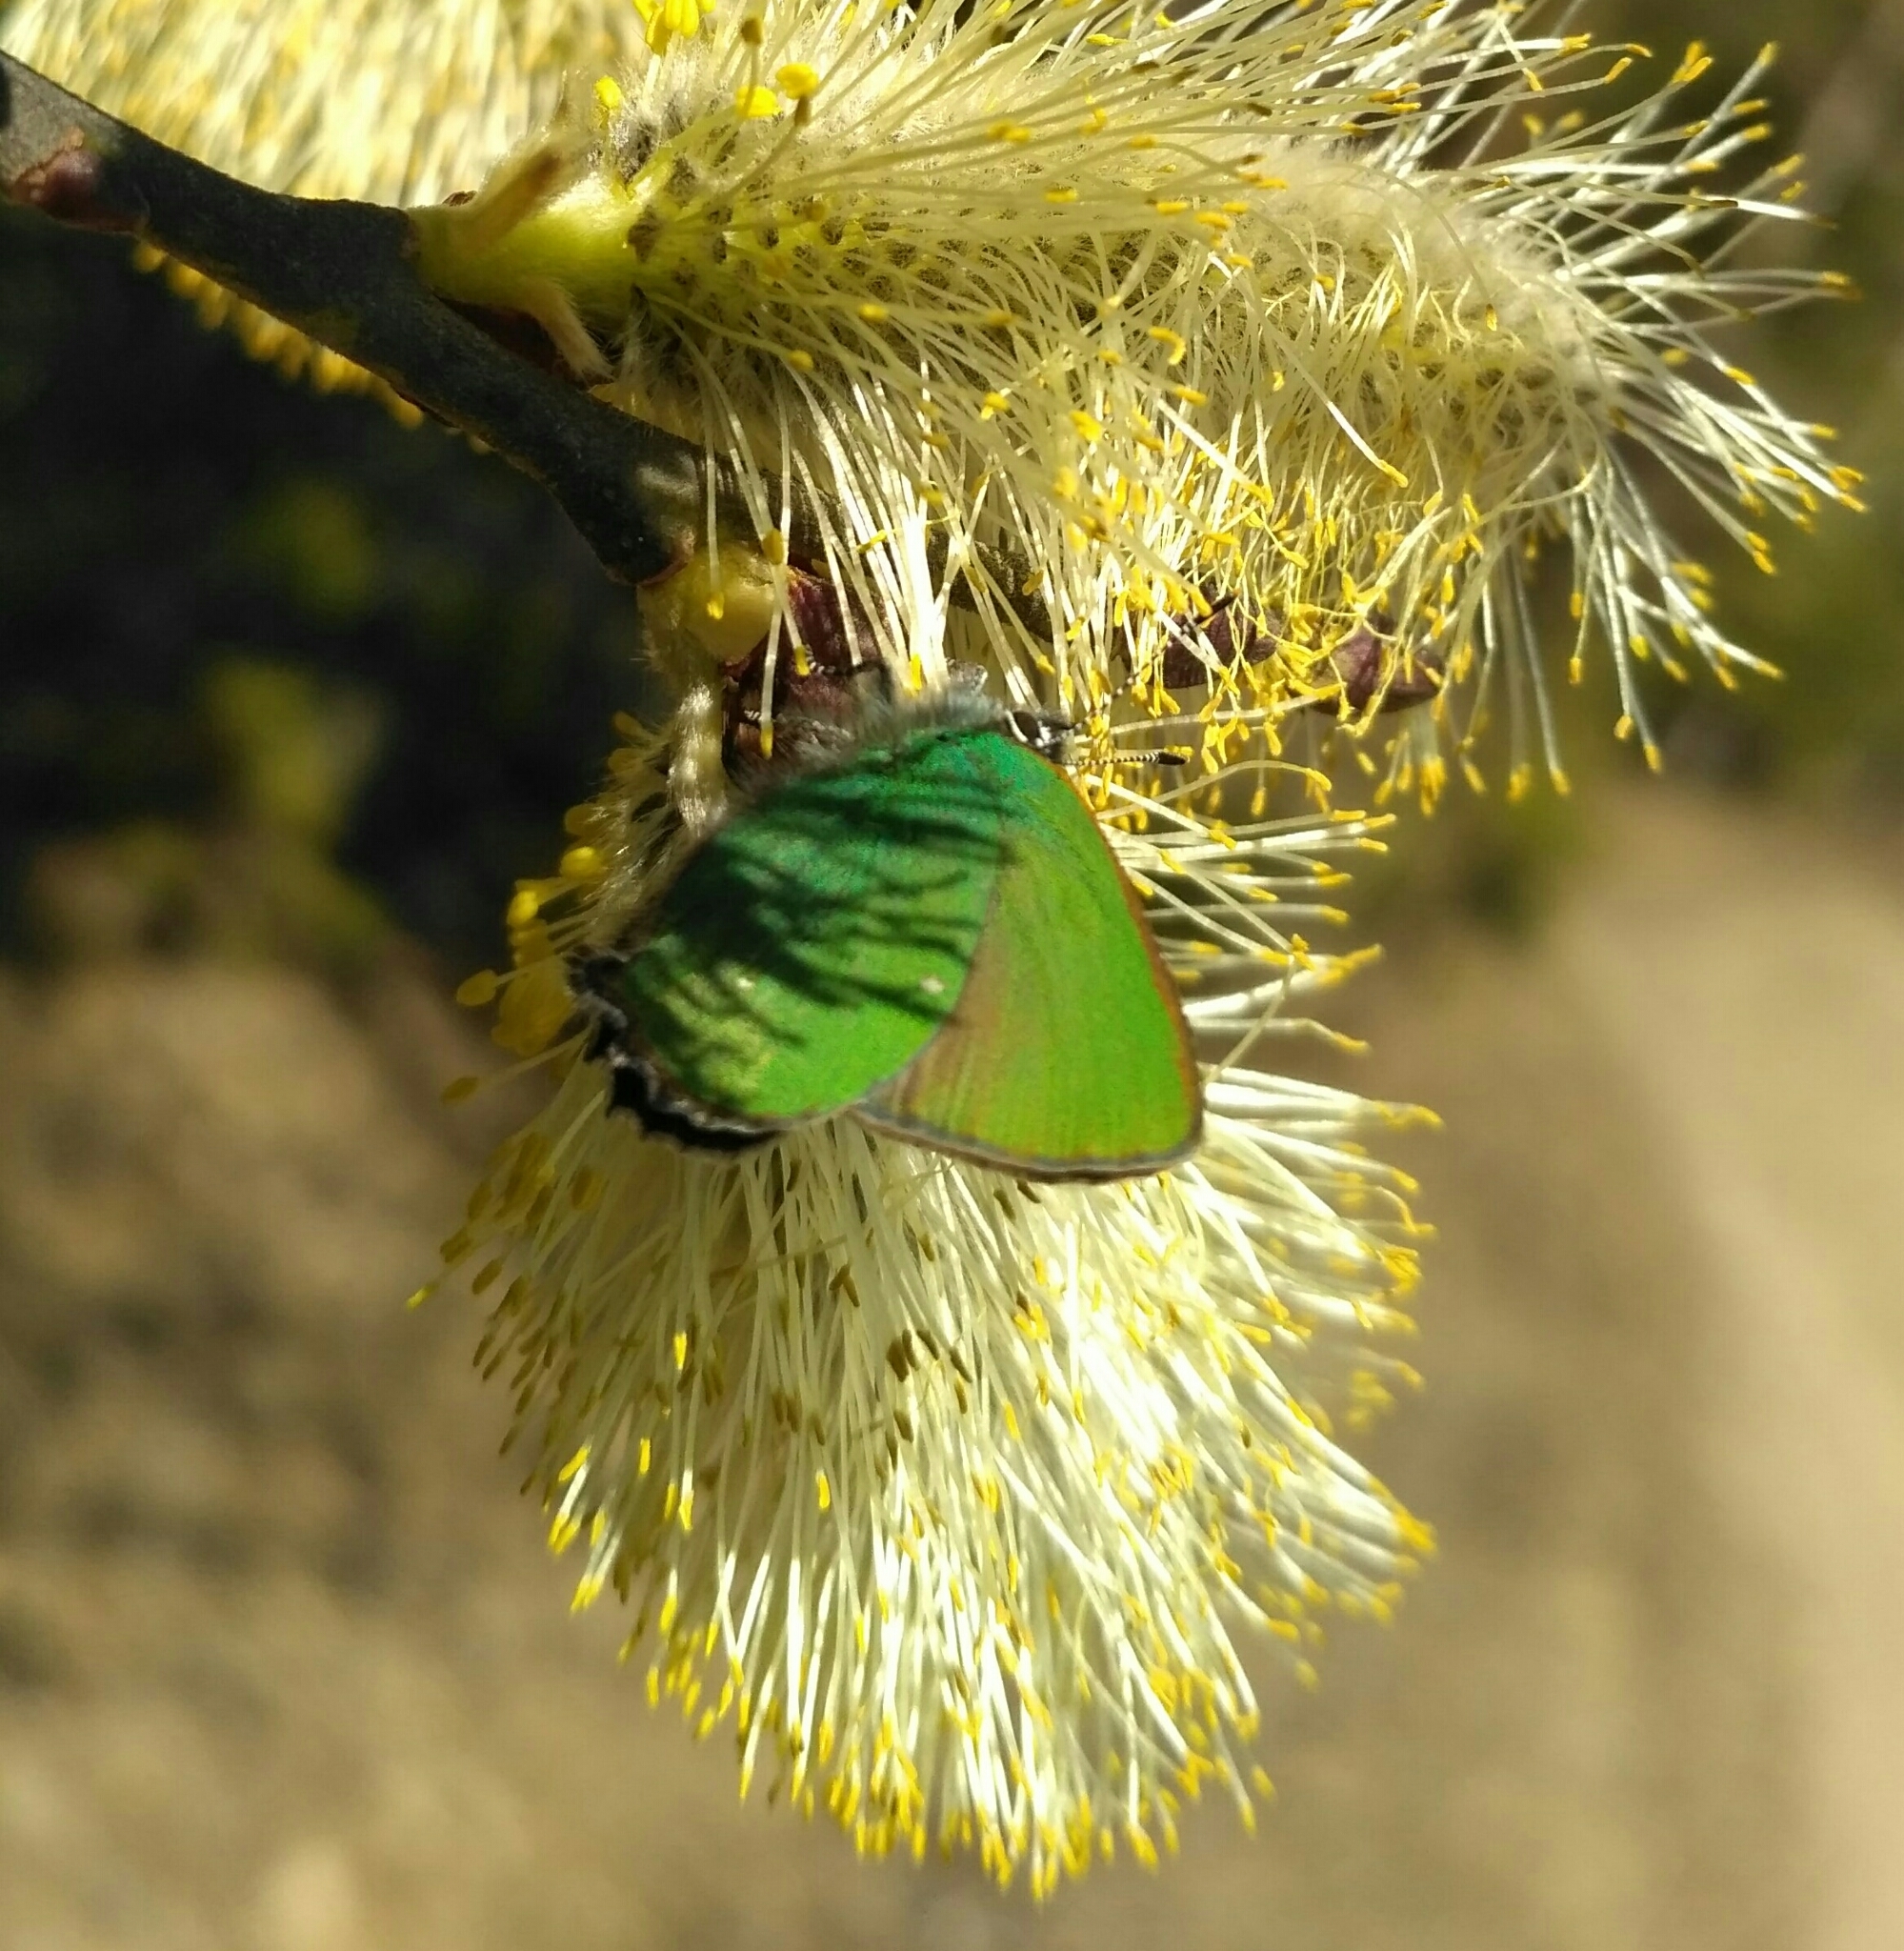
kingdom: Animalia
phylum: Arthropoda
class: Insecta
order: Lepidoptera
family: Lycaenidae
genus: Callophrys
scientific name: Callophrys rubi
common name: Green hairstreak
